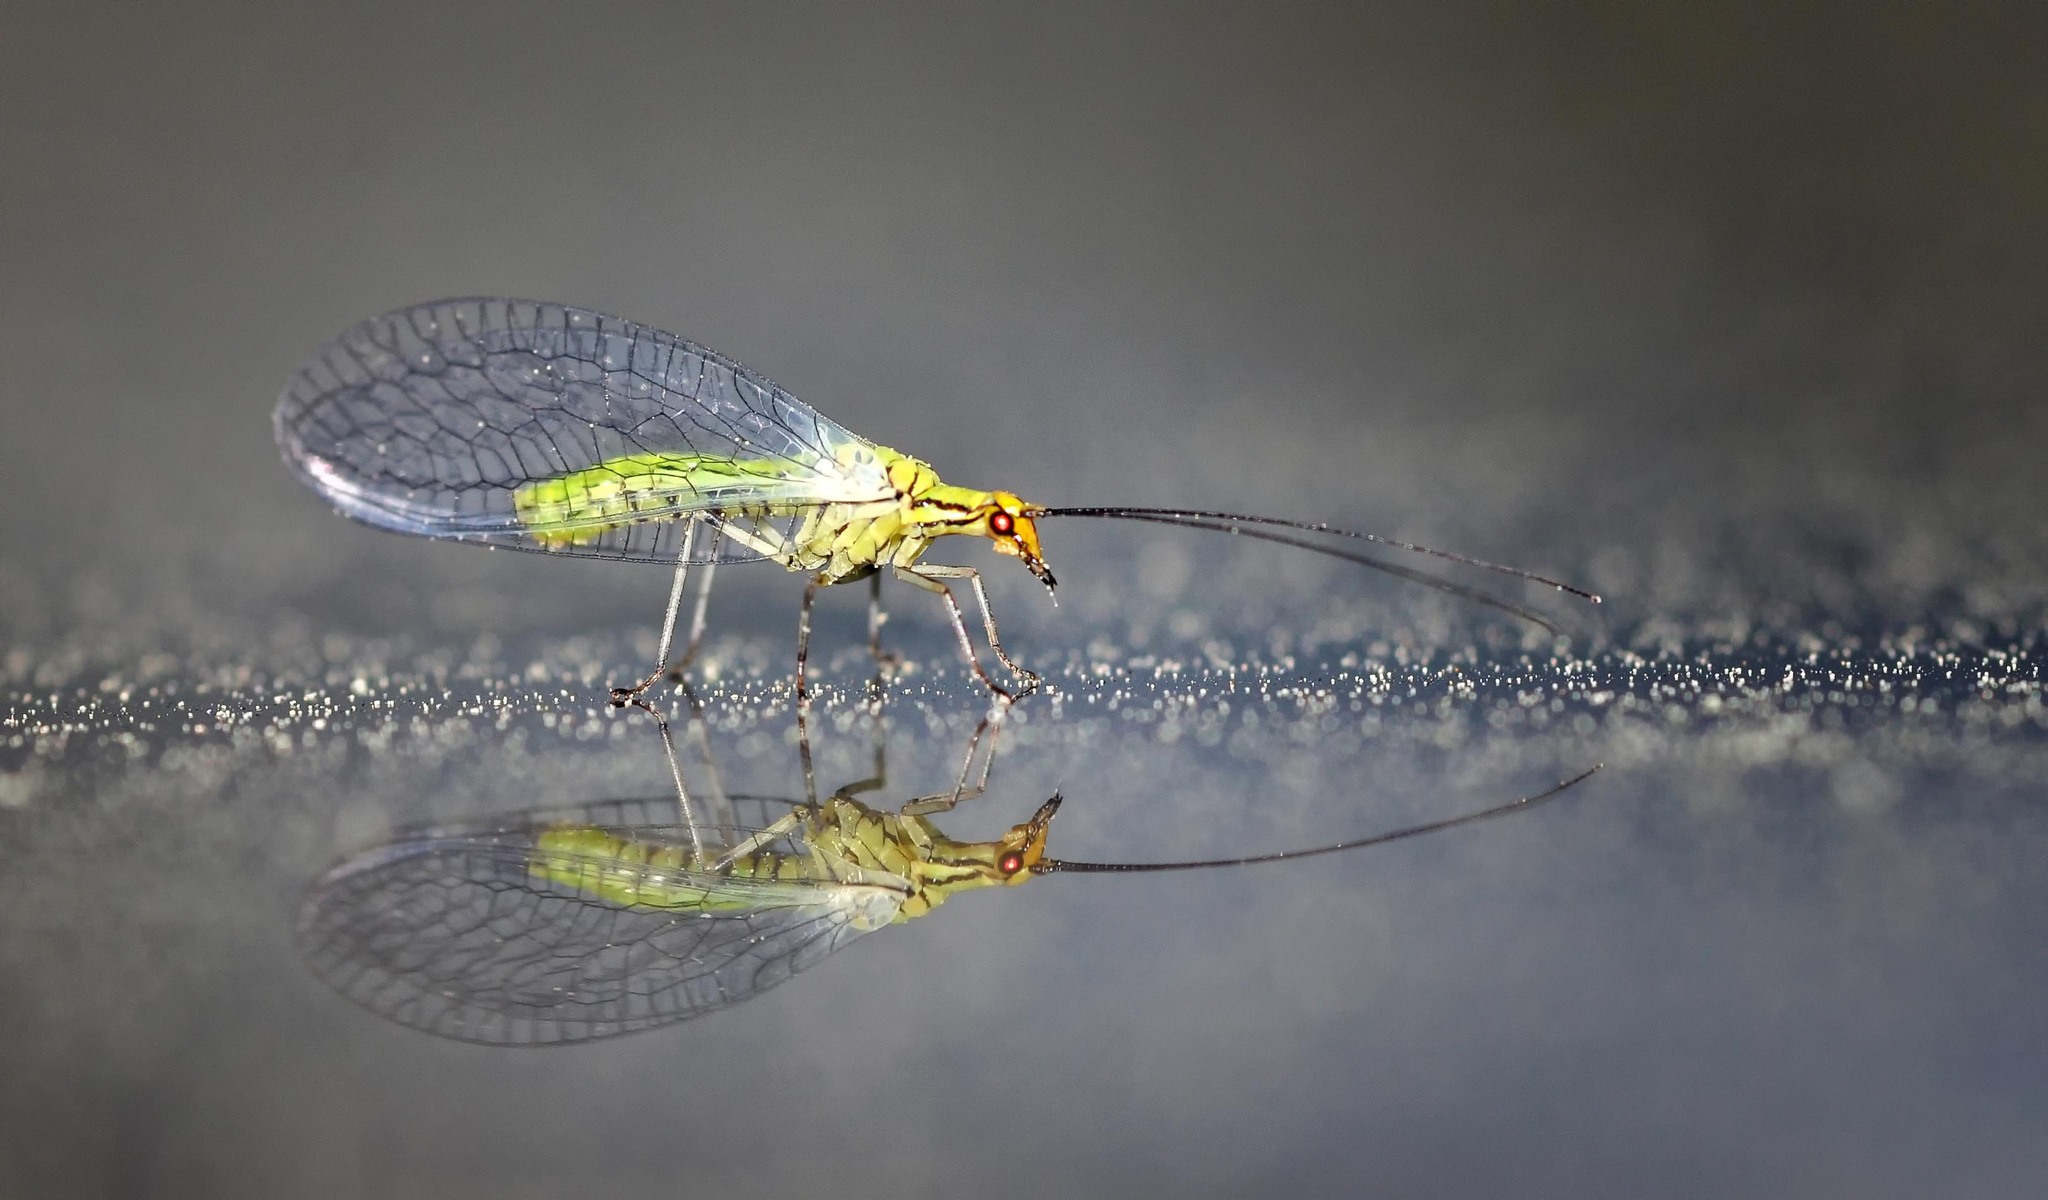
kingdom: Animalia
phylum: Arthropoda
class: Insecta
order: Neuroptera
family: Chrysopidae
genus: Hypochrysa
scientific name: Hypochrysa elegans
